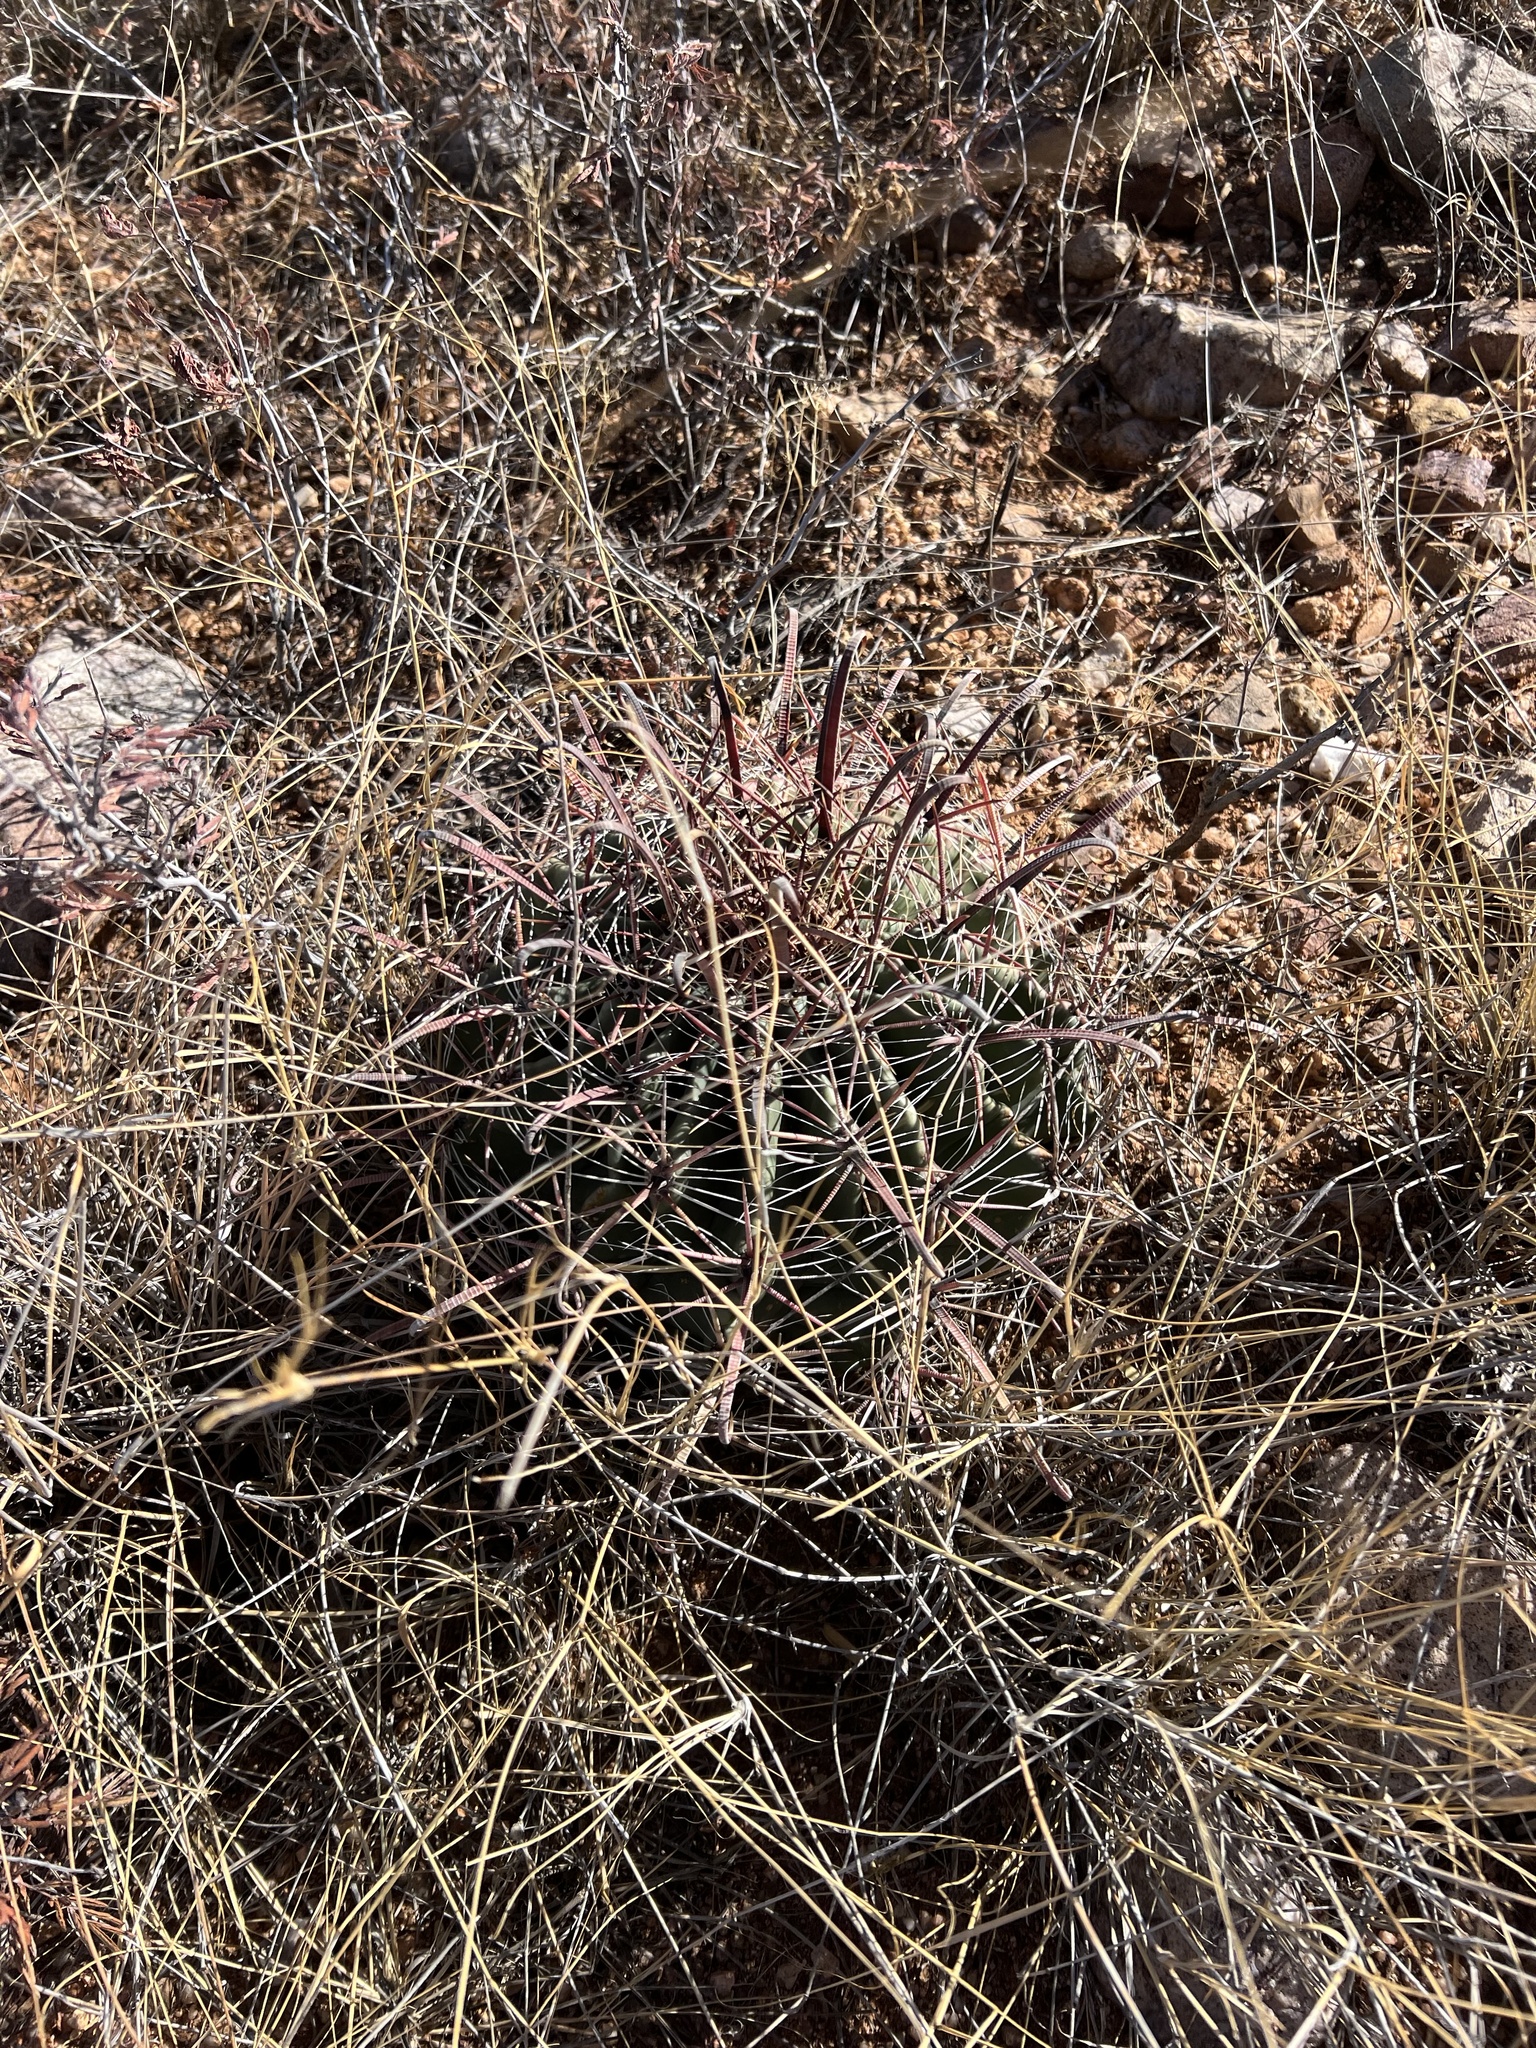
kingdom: Plantae
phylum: Tracheophyta
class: Magnoliopsida
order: Caryophyllales
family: Cactaceae
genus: Ferocactus
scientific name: Ferocactus wislizeni
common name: Candy barrel cactus
